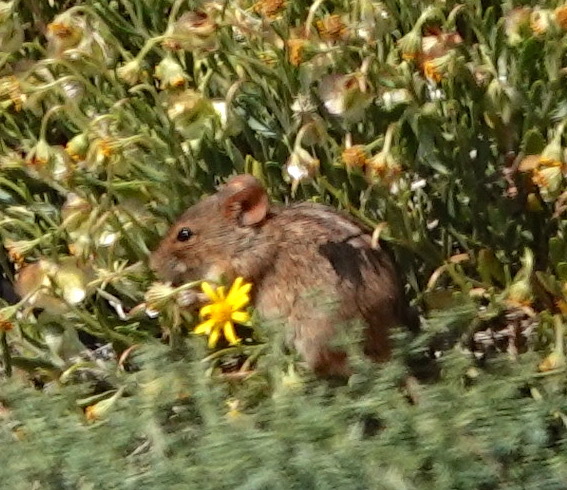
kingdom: Animalia
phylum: Chordata
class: Mammalia
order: Rodentia
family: Muridae
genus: Rhabdomys
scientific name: Rhabdomys pumilio
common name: Xeric four-striped grass rat
